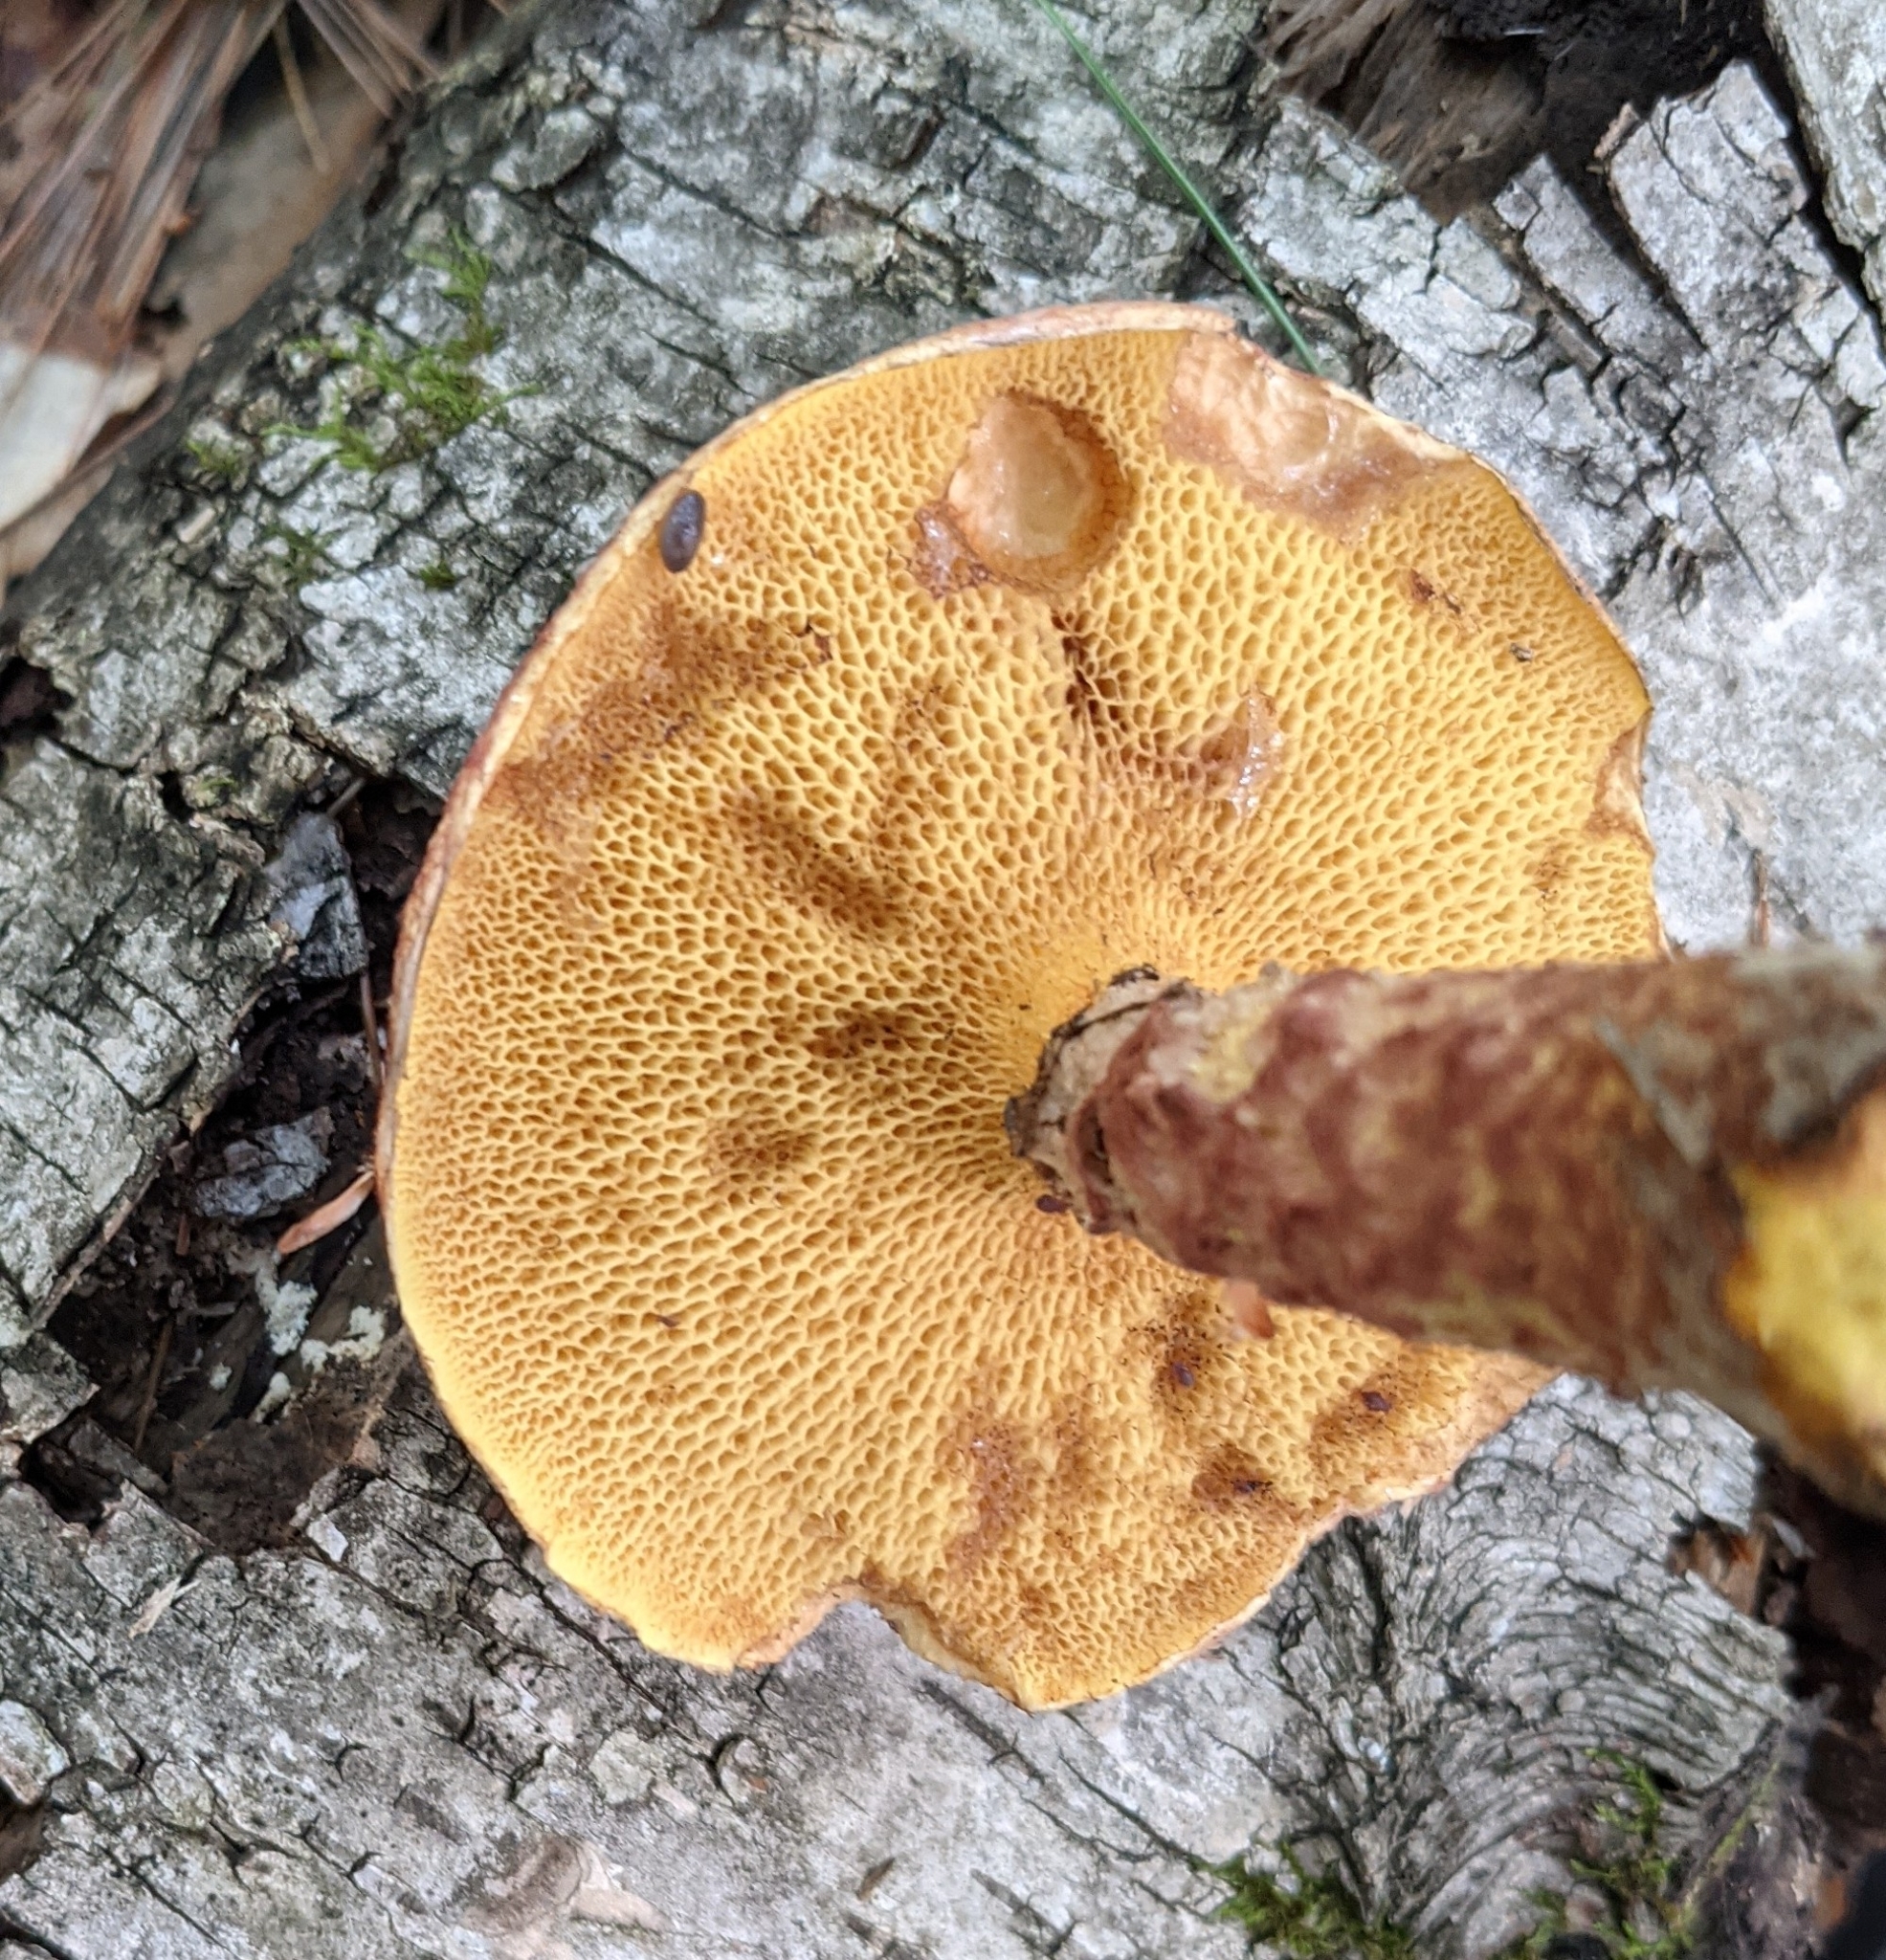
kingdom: Fungi
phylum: Basidiomycota
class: Agaricomycetes
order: Boletales
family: Suillaceae
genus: Suillus
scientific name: Suillus spraguei
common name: Painted suillus
